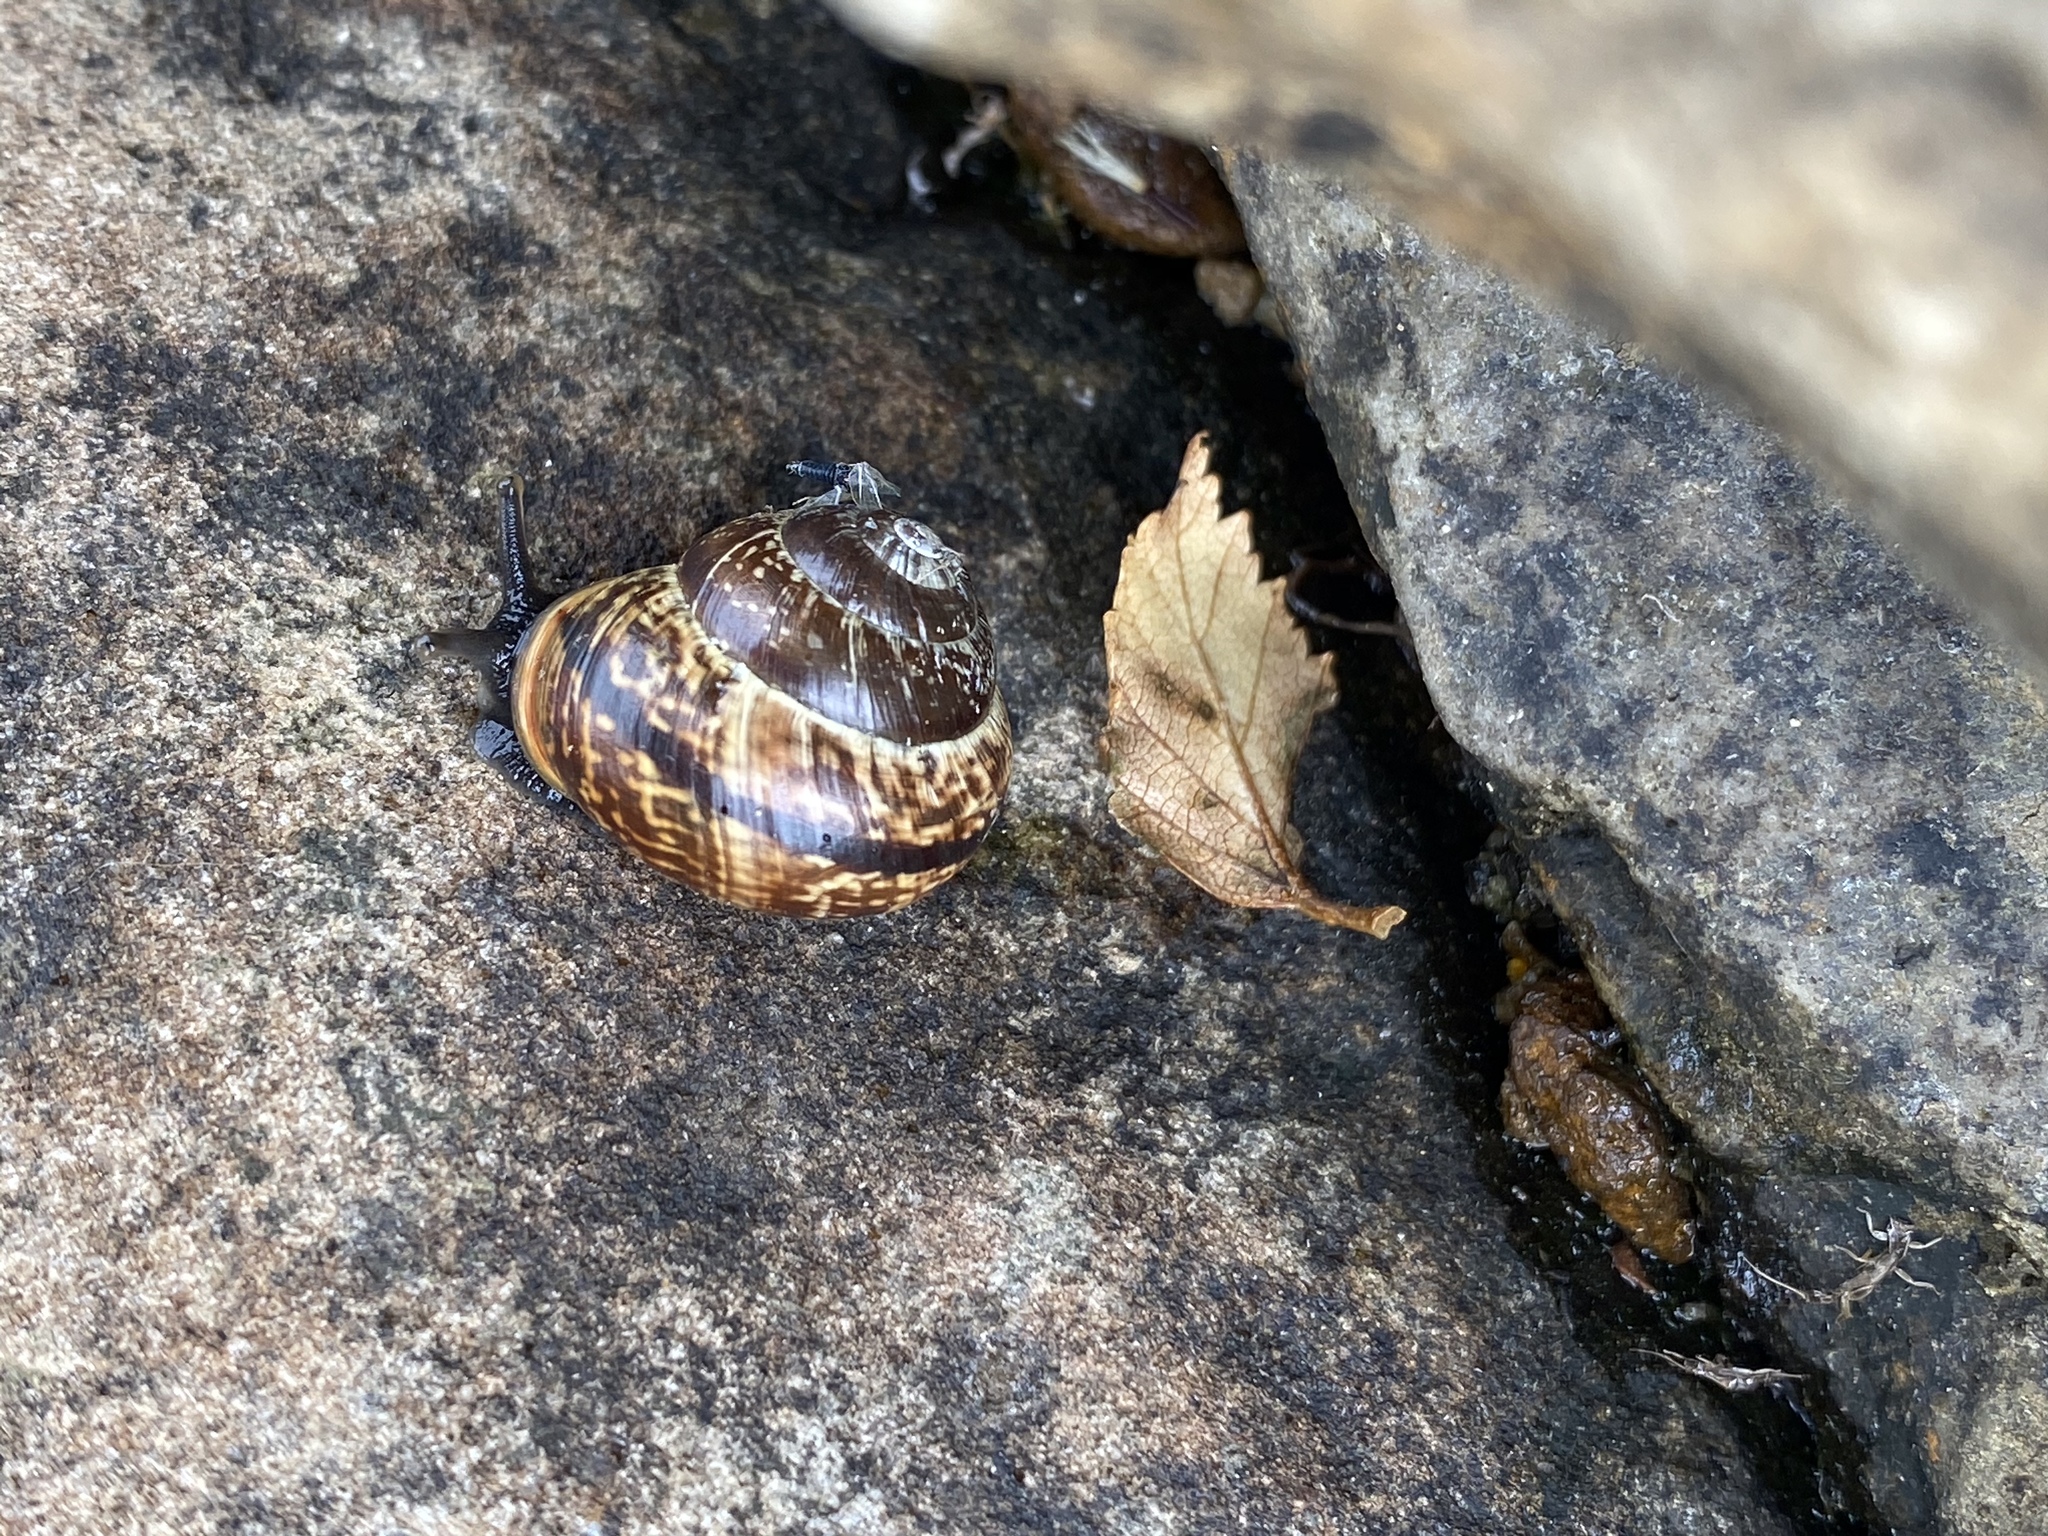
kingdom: Animalia
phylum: Mollusca
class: Gastropoda
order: Stylommatophora
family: Helicidae
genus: Arianta
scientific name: Arianta arbustorum
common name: Copse snail
